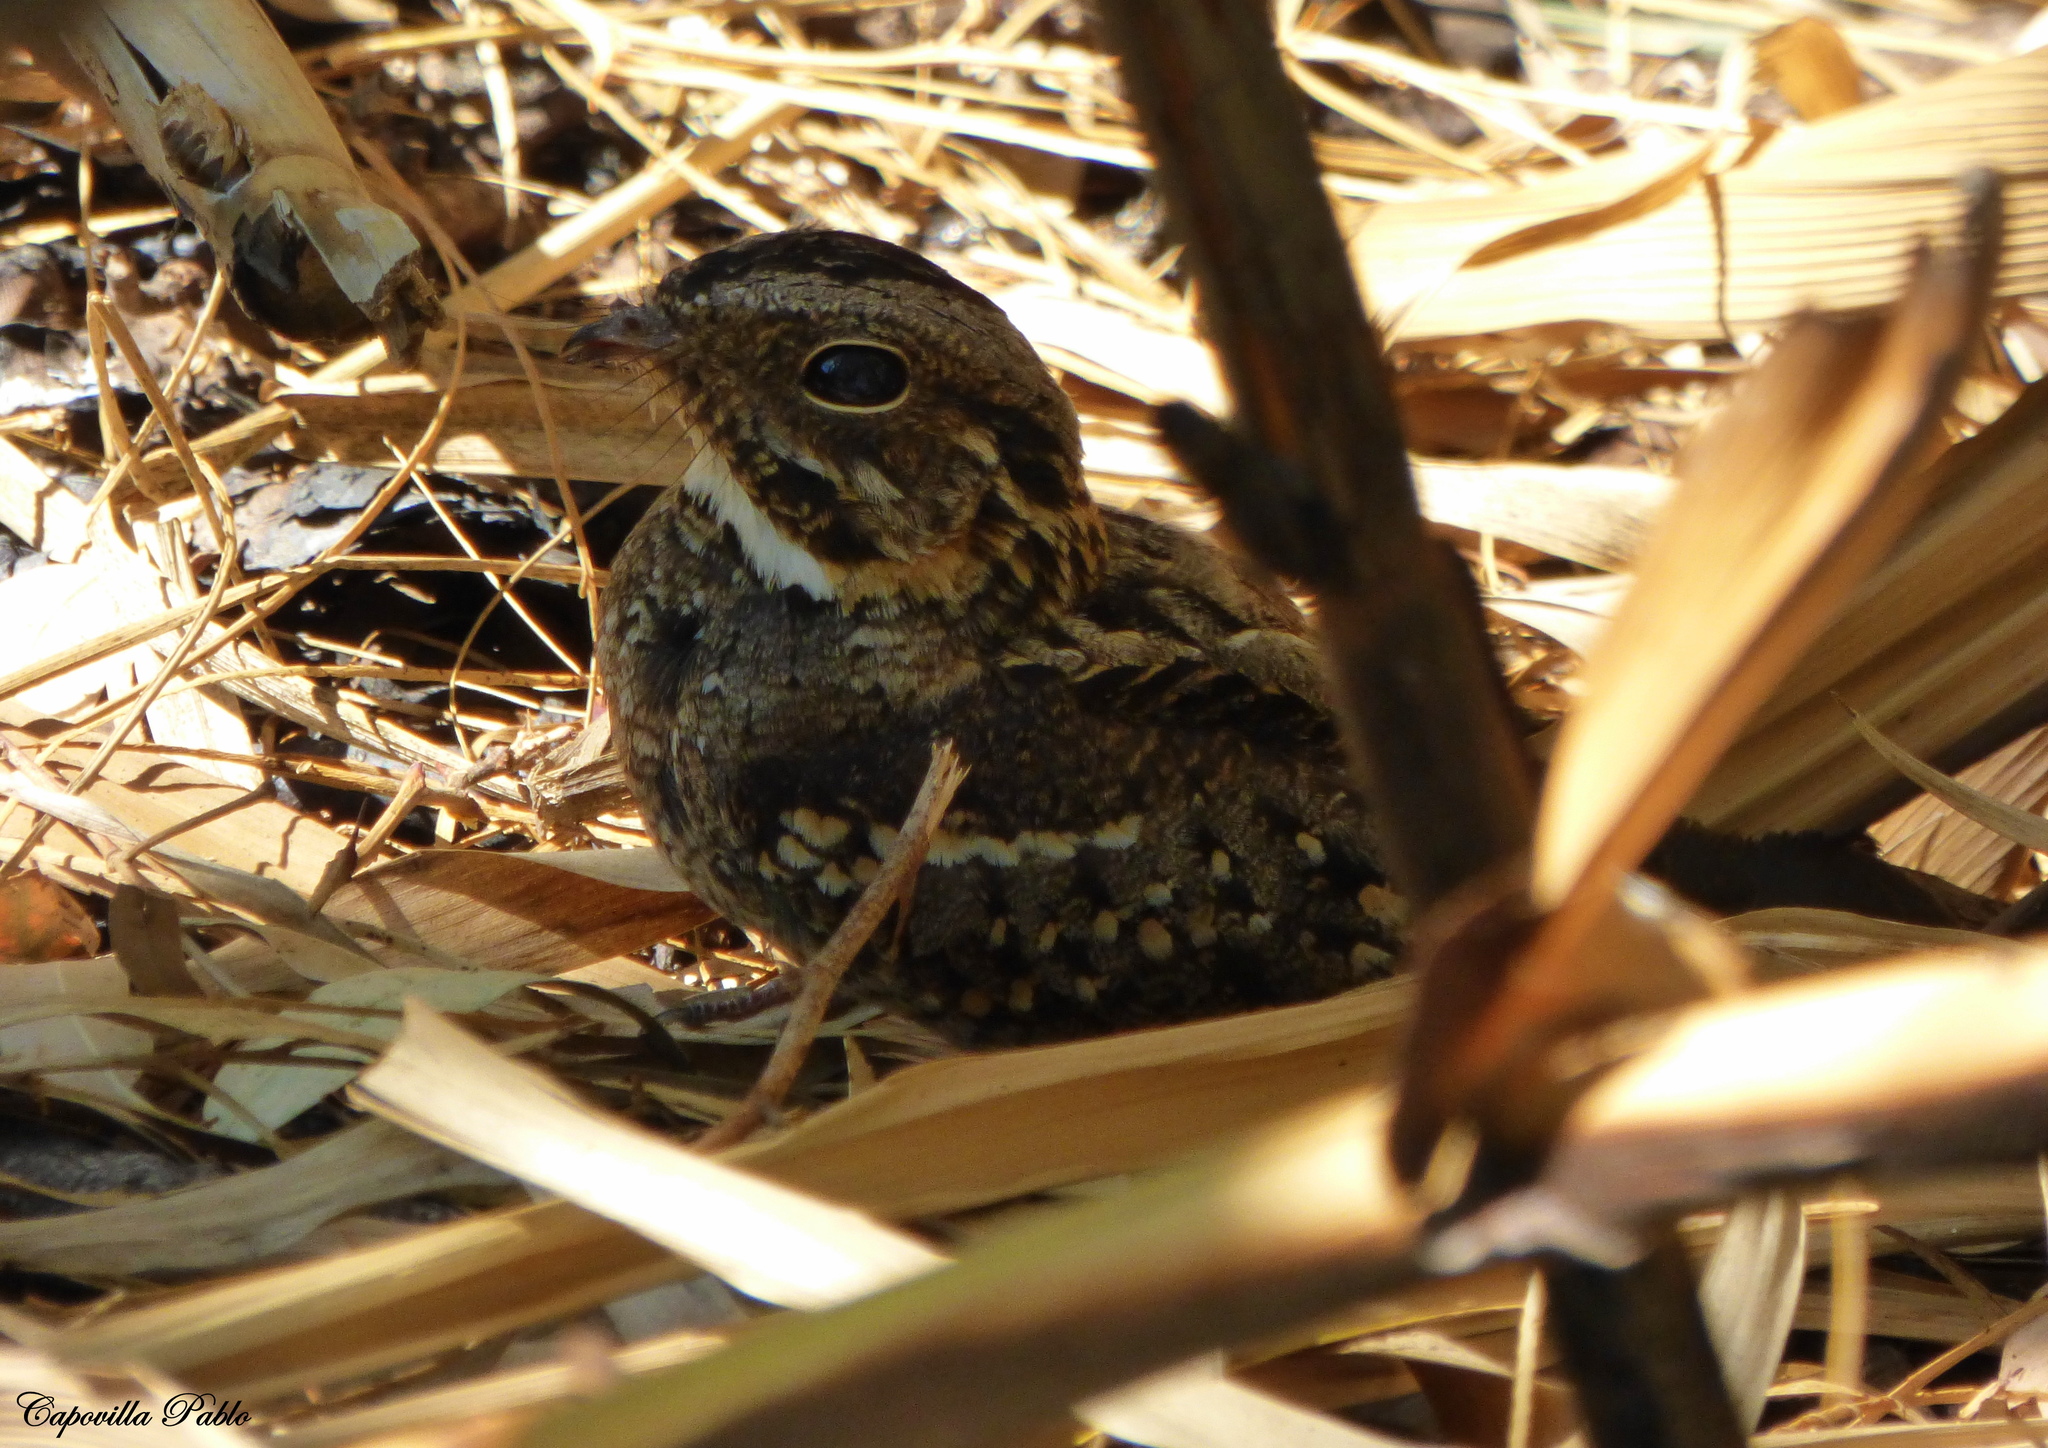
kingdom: Animalia
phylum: Chordata
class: Aves
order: Caprimulgiformes
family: Caprimulgidae
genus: Setopagis
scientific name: Setopagis parvula
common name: Little nightjar
